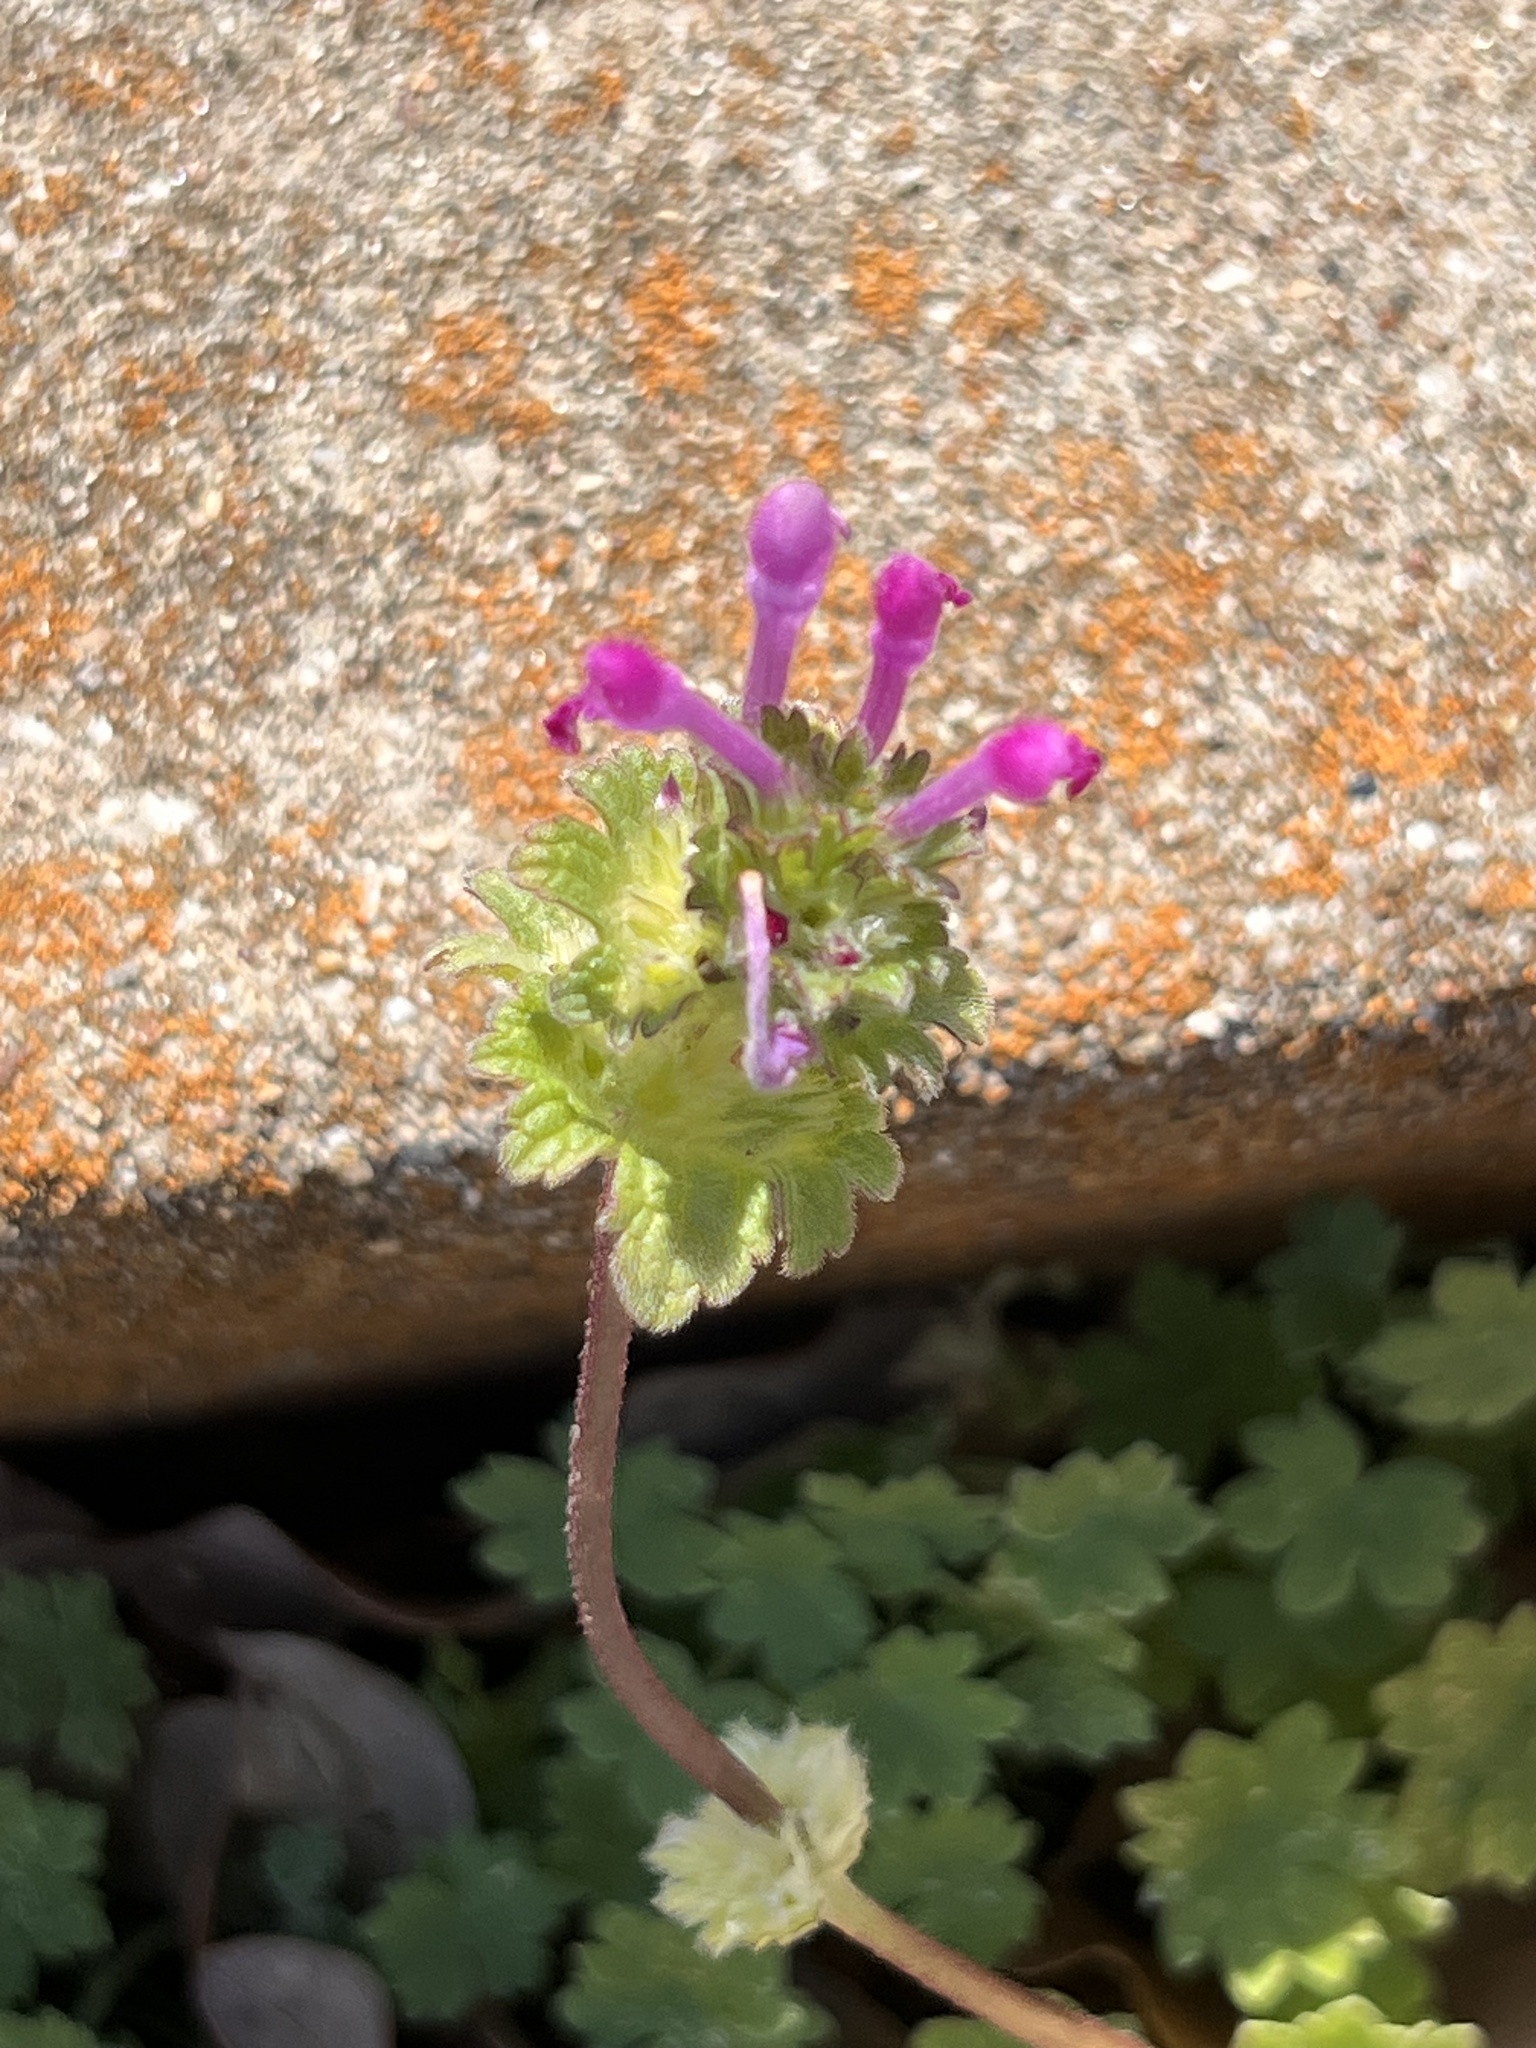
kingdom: Plantae
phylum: Tracheophyta
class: Magnoliopsida
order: Lamiales
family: Lamiaceae
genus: Lamium
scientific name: Lamium amplexicaule
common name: Henbit dead-nettle
